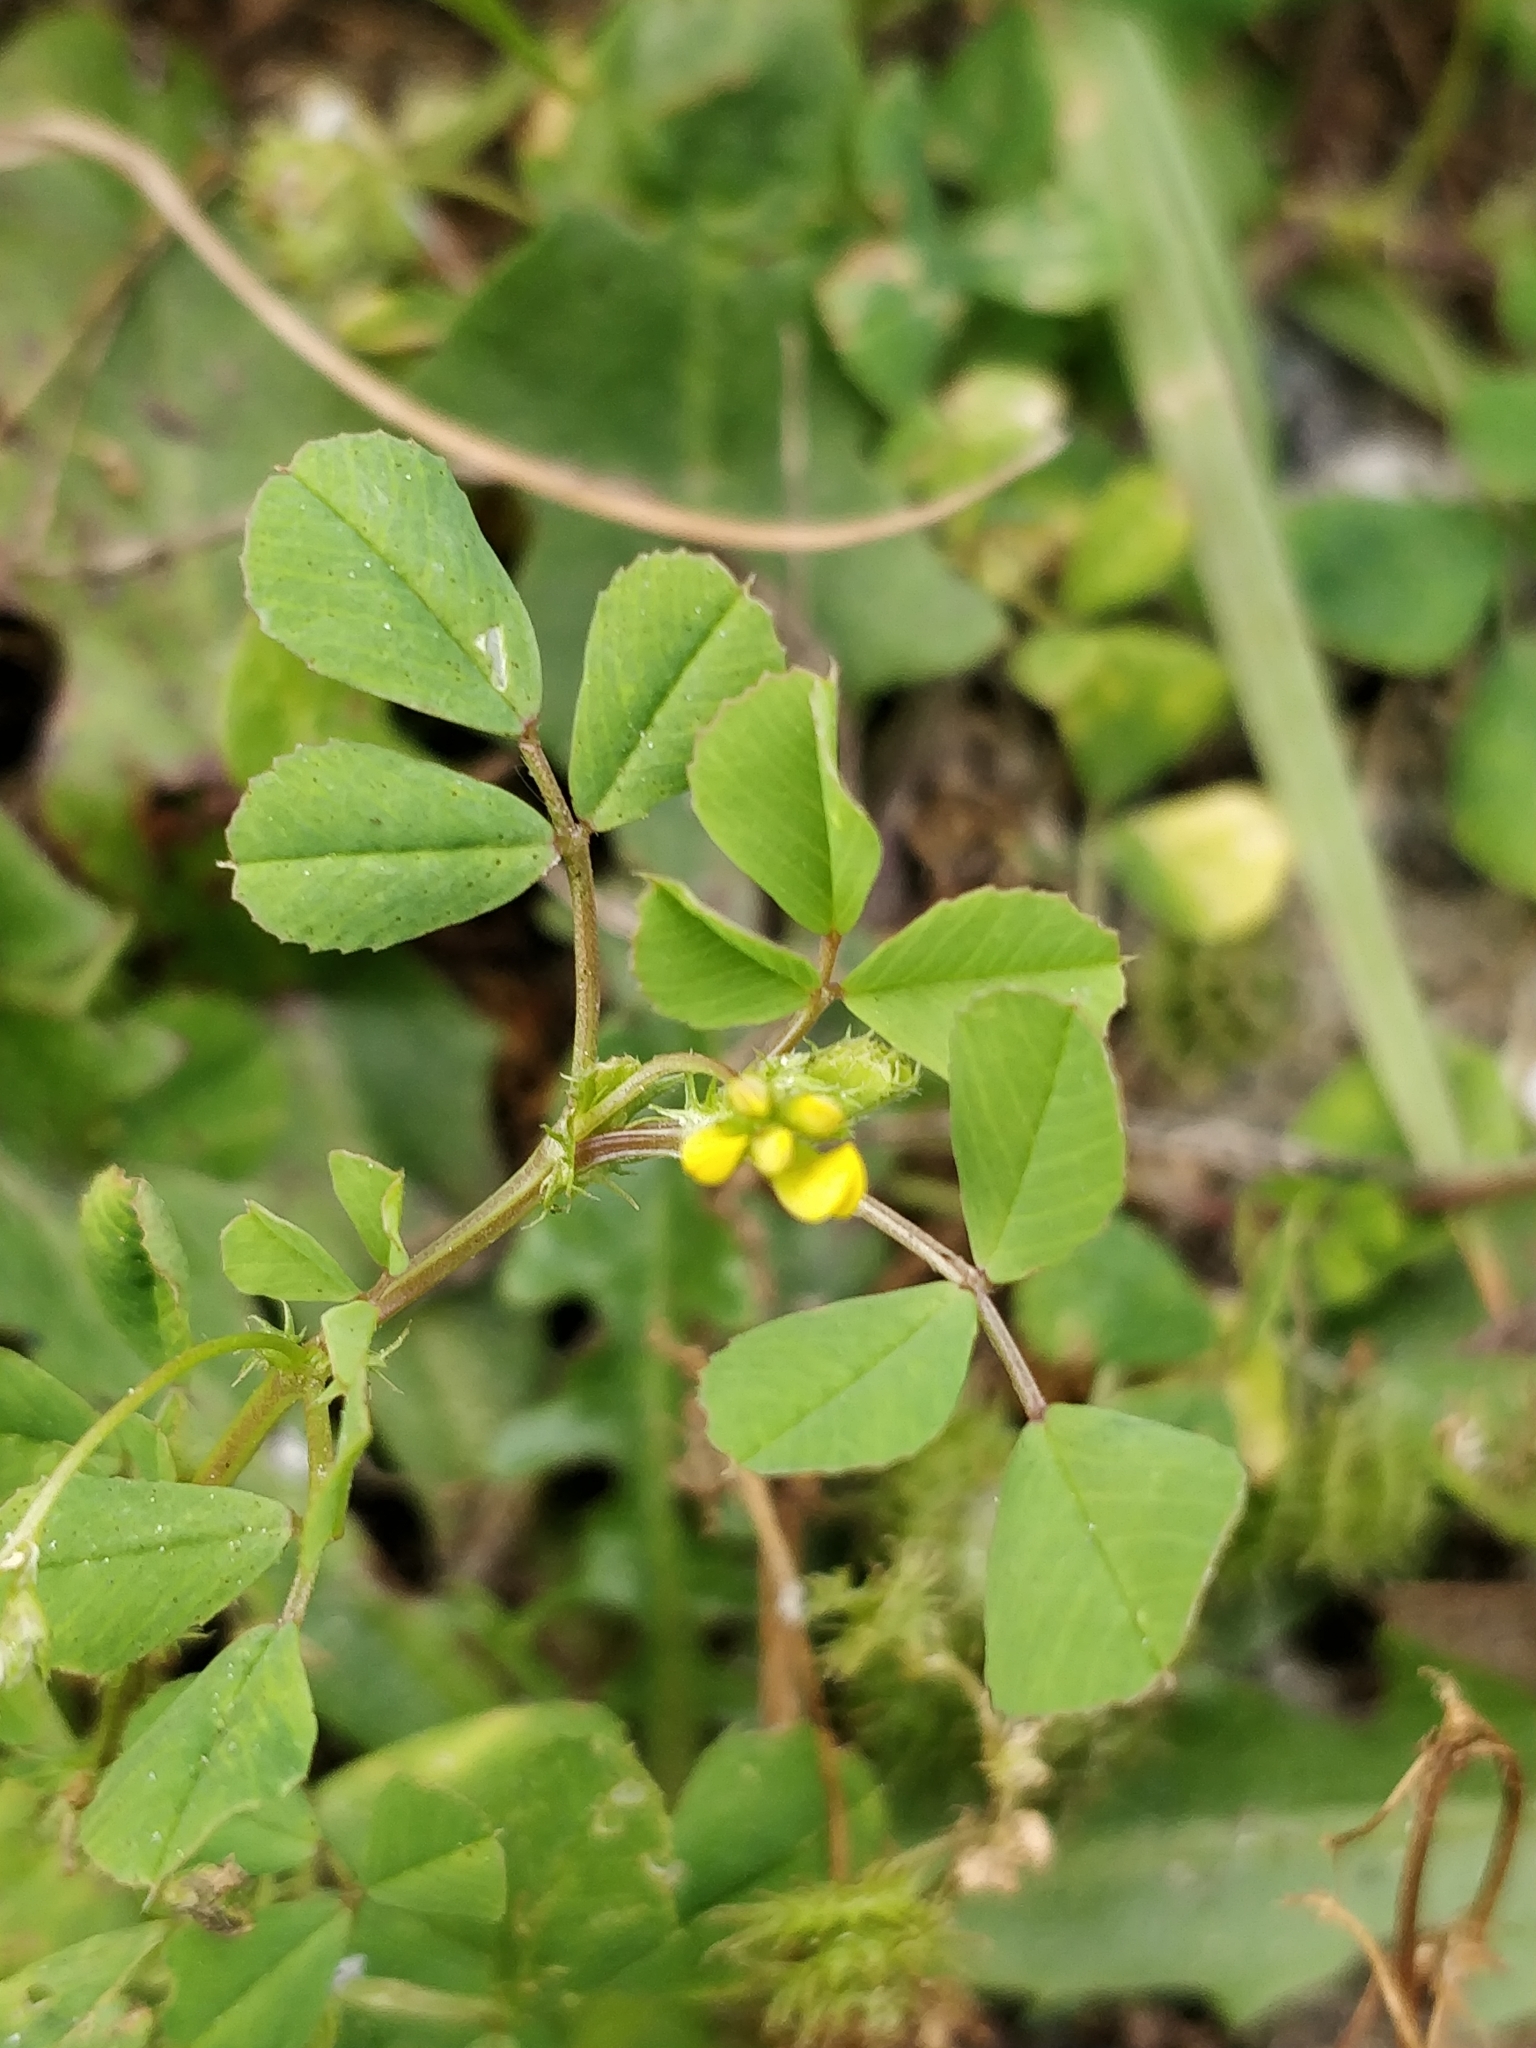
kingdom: Plantae
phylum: Tracheophyta
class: Magnoliopsida
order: Fabales
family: Fabaceae
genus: Medicago
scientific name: Medicago polymorpha
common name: Burclover
